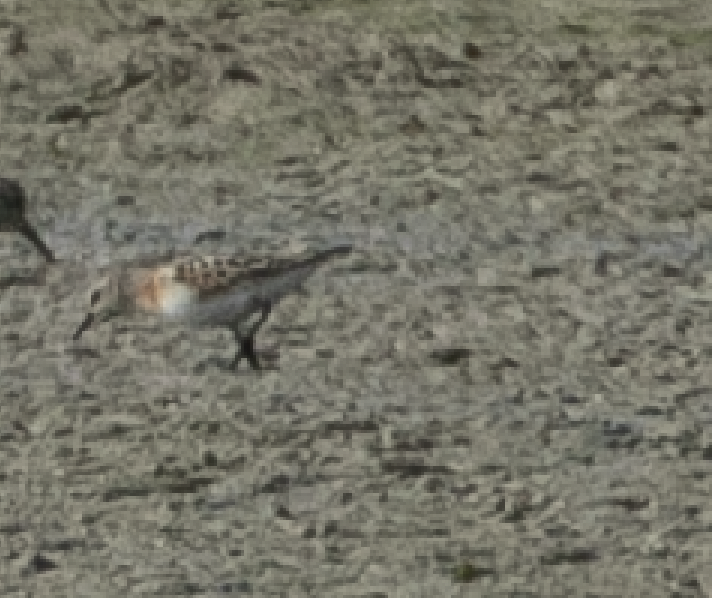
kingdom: Animalia
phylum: Chordata
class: Aves
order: Charadriiformes
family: Scolopacidae
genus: Calidris
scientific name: Calidris minuta
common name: Little stint
